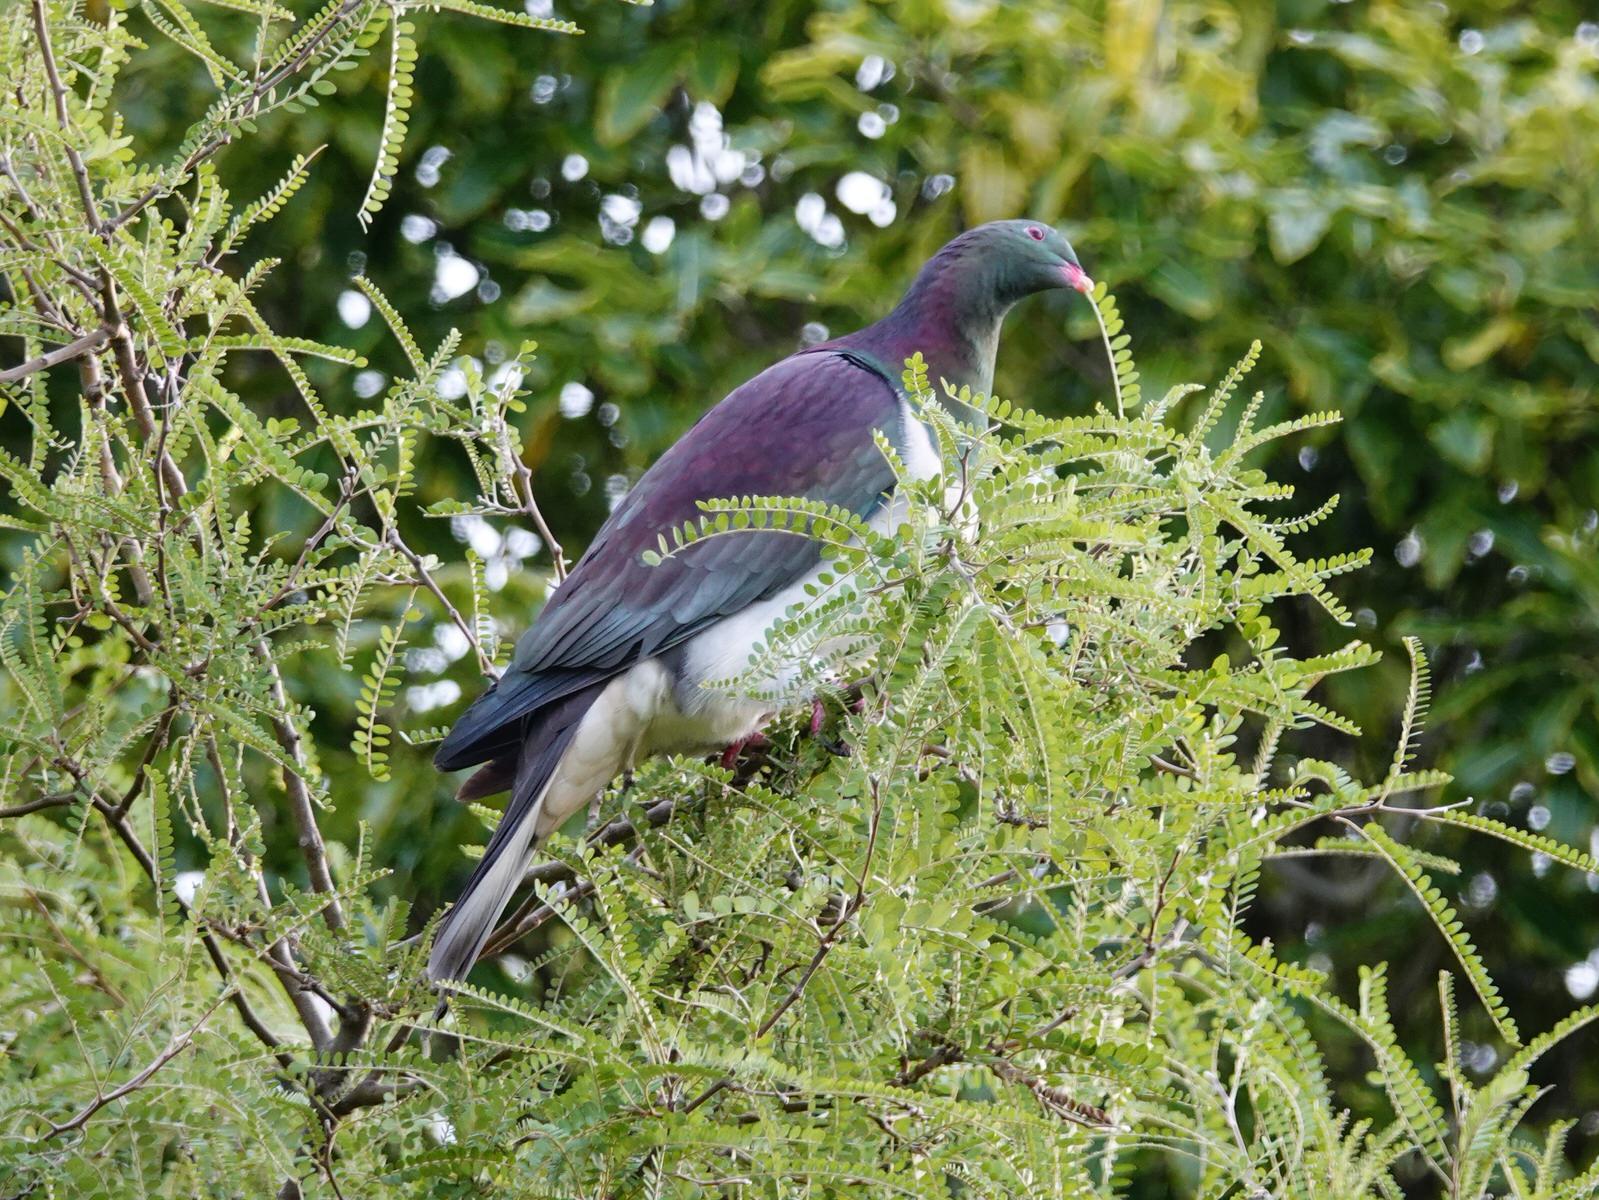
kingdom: Animalia
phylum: Chordata
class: Aves
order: Columbiformes
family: Columbidae
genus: Hemiphaga
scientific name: Hemiphaga novaeseelandiae
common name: New zealand pigeon
